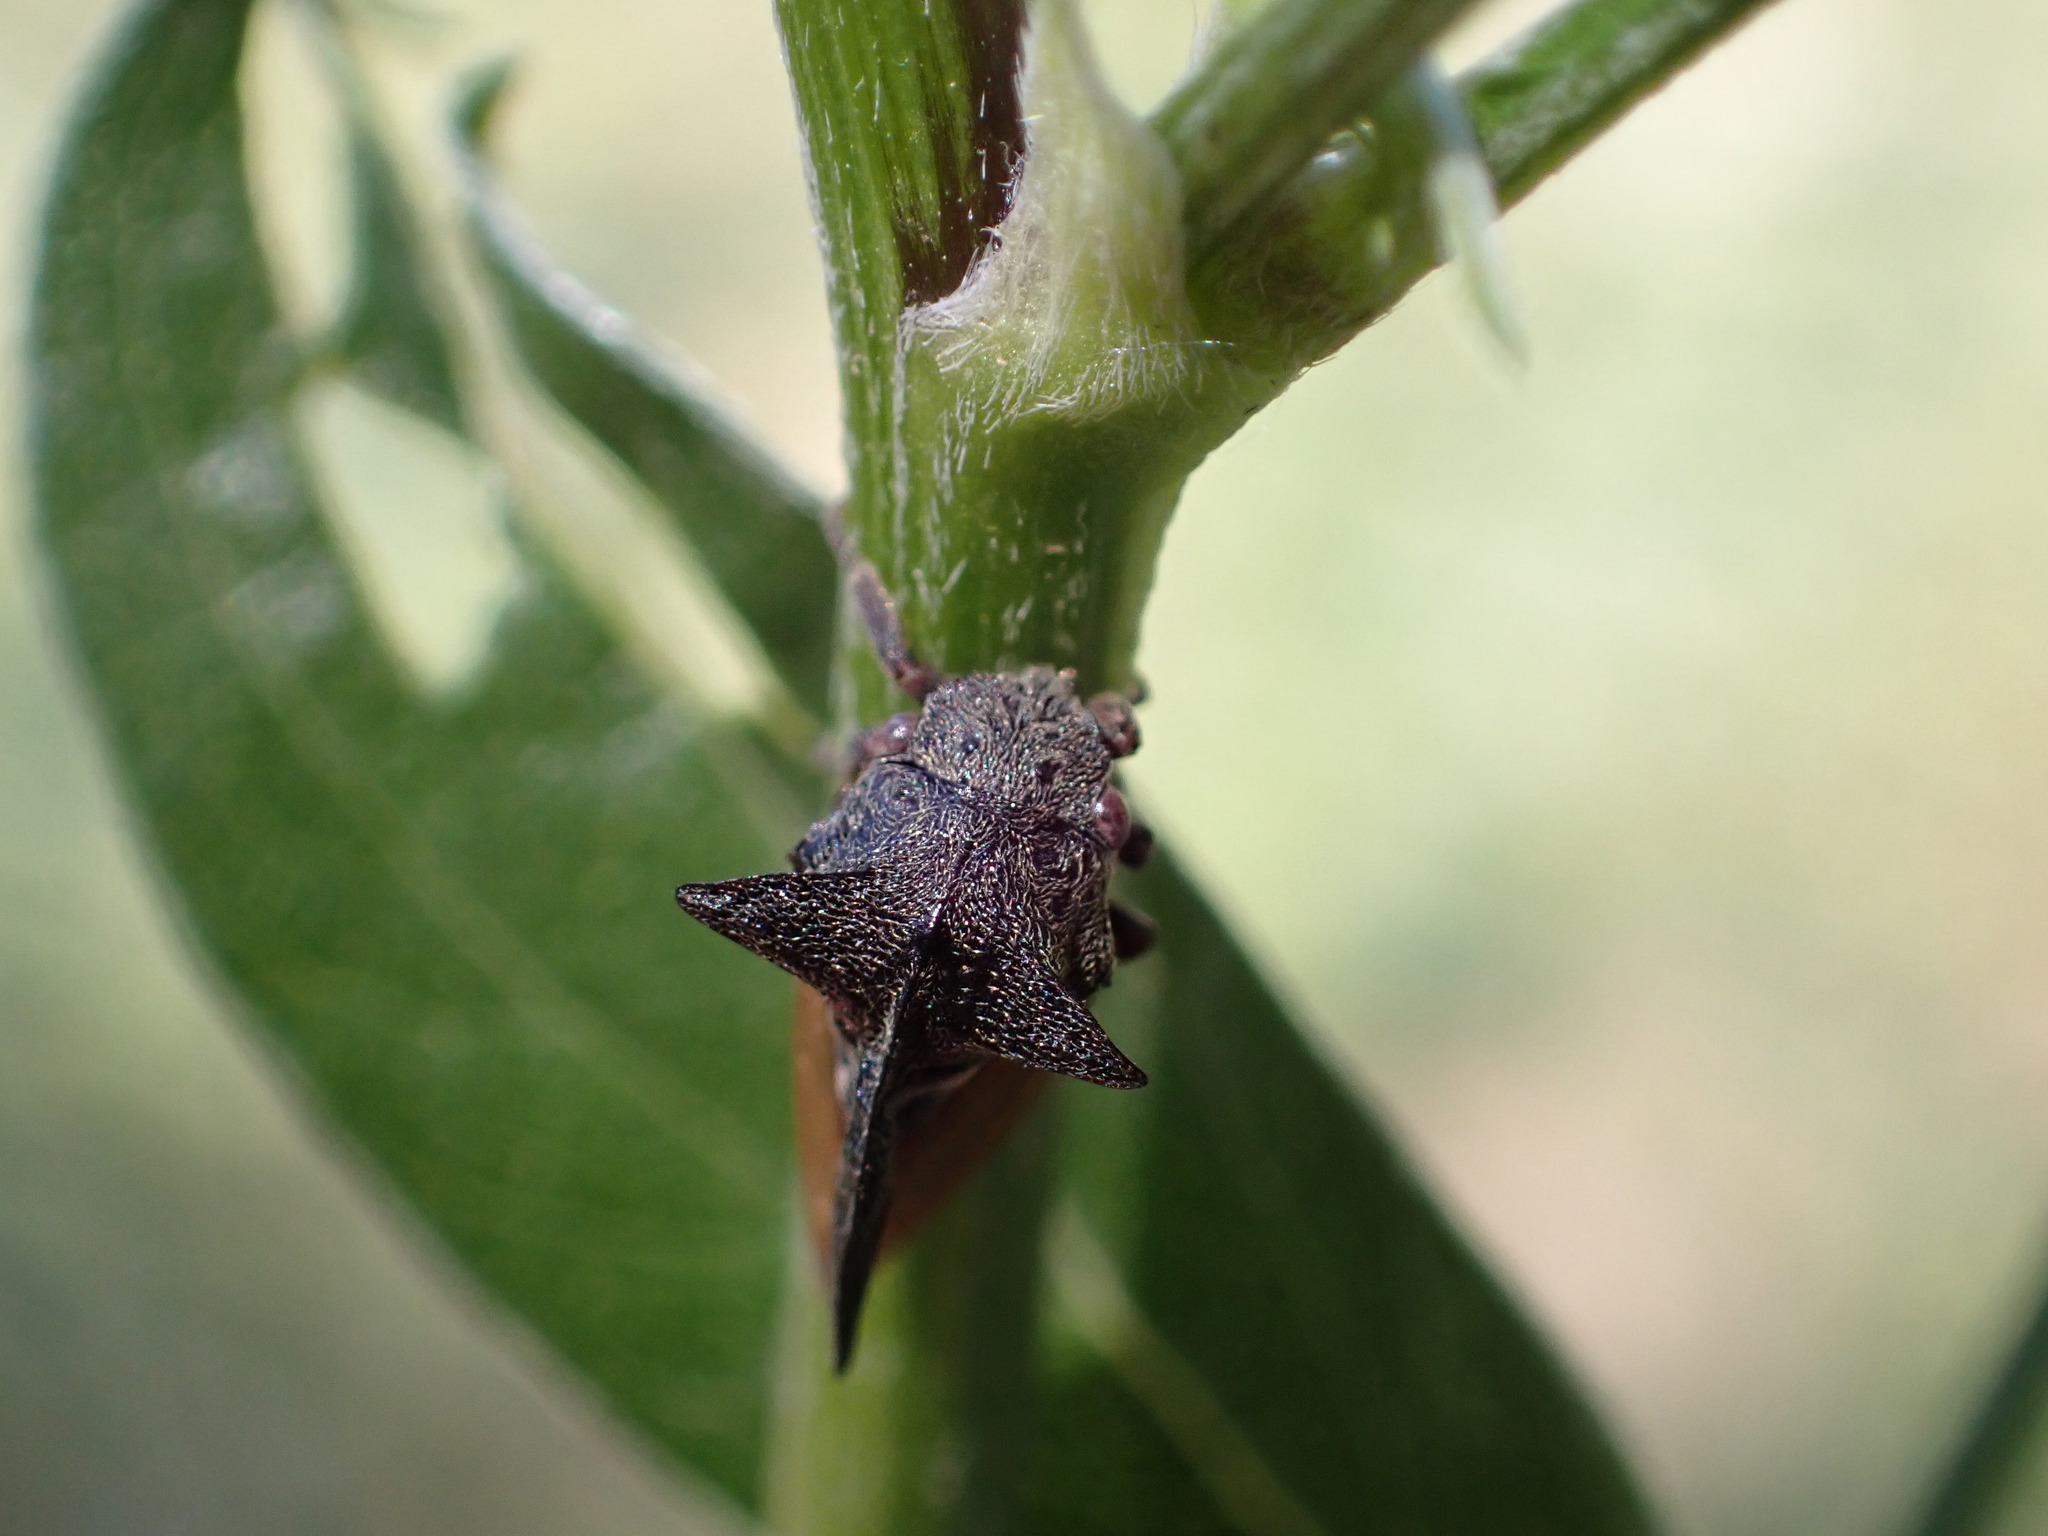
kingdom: Animalia
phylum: Arthropoda
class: Insecta
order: Hemiptera
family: Membracidae
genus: Centrotus
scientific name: Centrotus cornuta
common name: Treehopper
